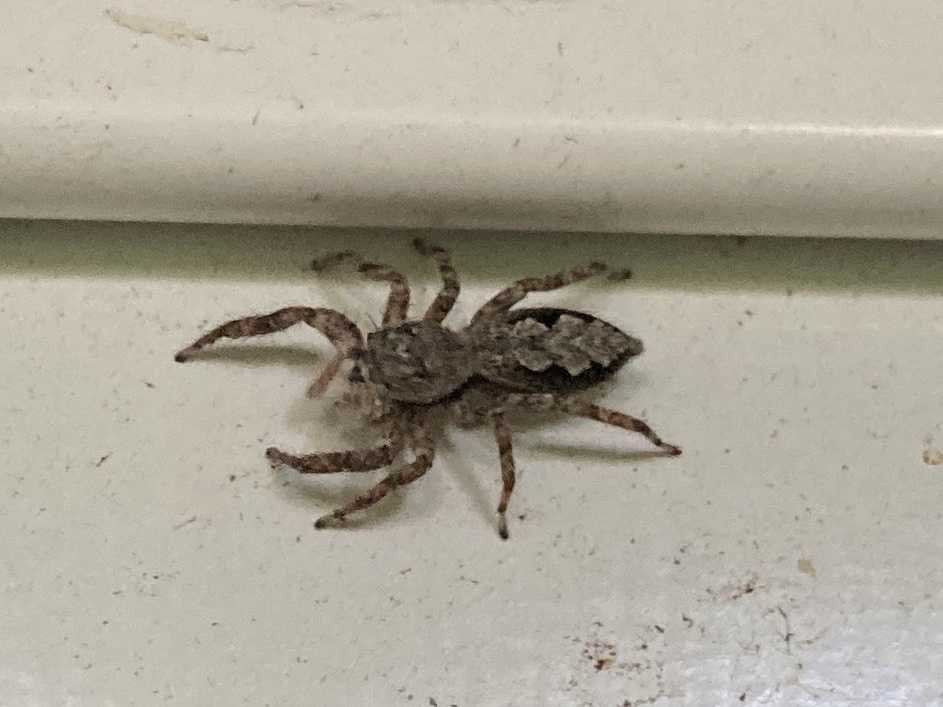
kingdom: Animalia
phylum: Arthropoda
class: Arachnida
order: Araneae
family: Salticidae
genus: Platycryptus
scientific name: Platycryptus undatus
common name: Tan jumping spider
